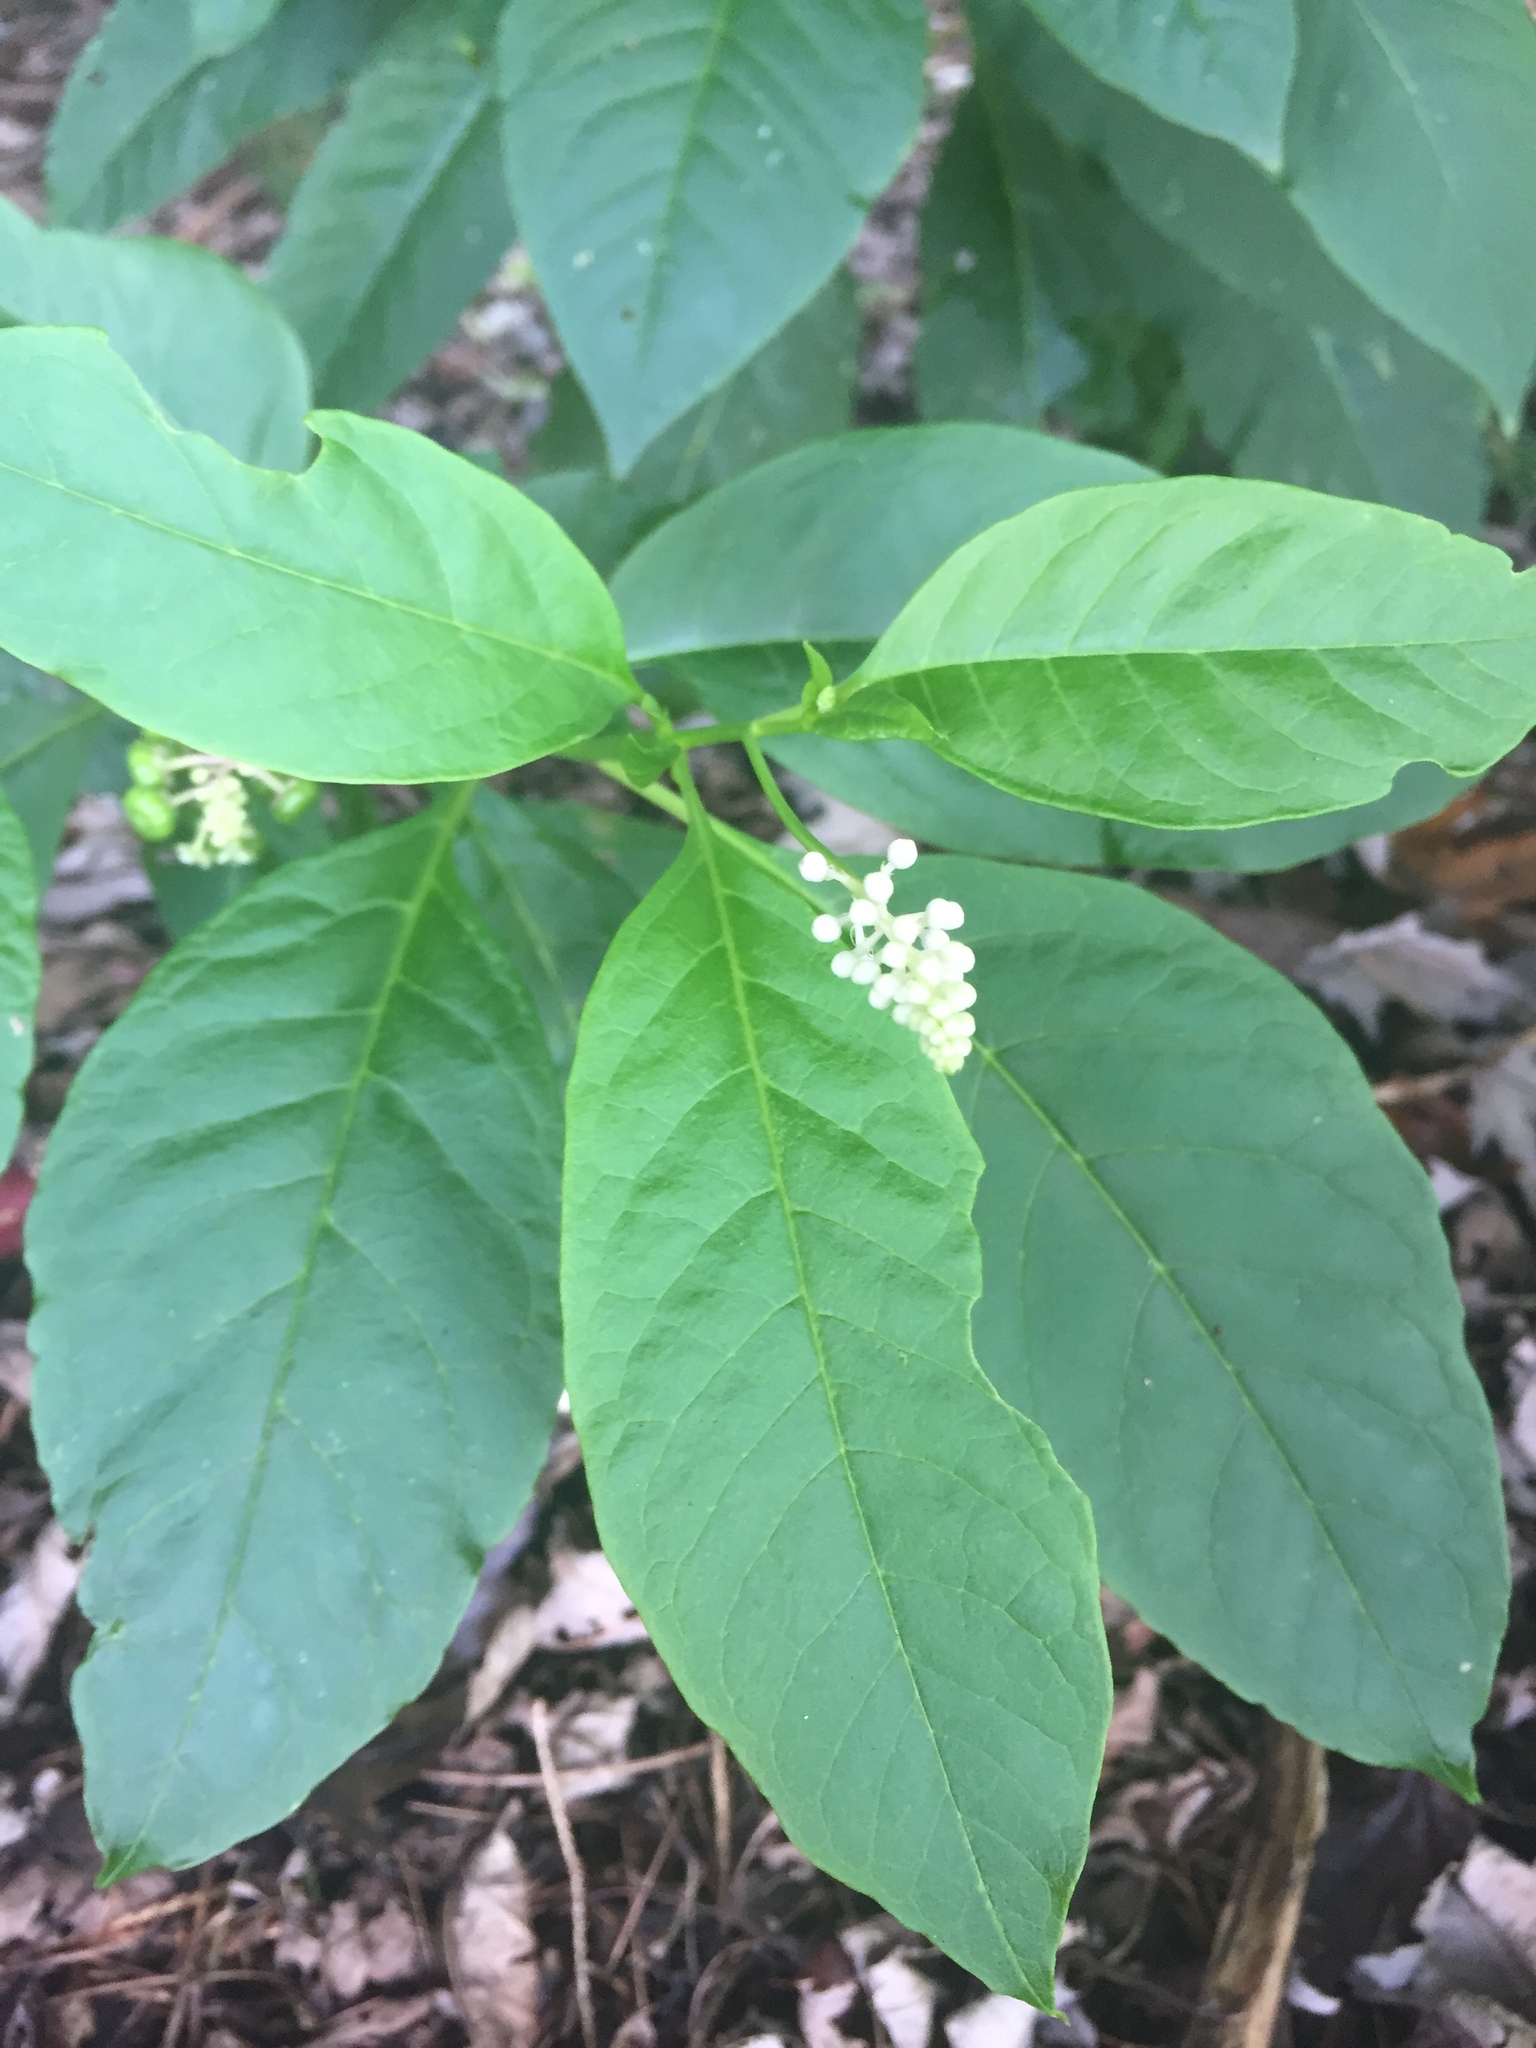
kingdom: Plantae
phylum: Tracheophyta
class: Magnoliopsida
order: Caryophyllales
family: Phytolaccaceae
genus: Phytolacca
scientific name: Phytolacca americana
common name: American pokeweed
